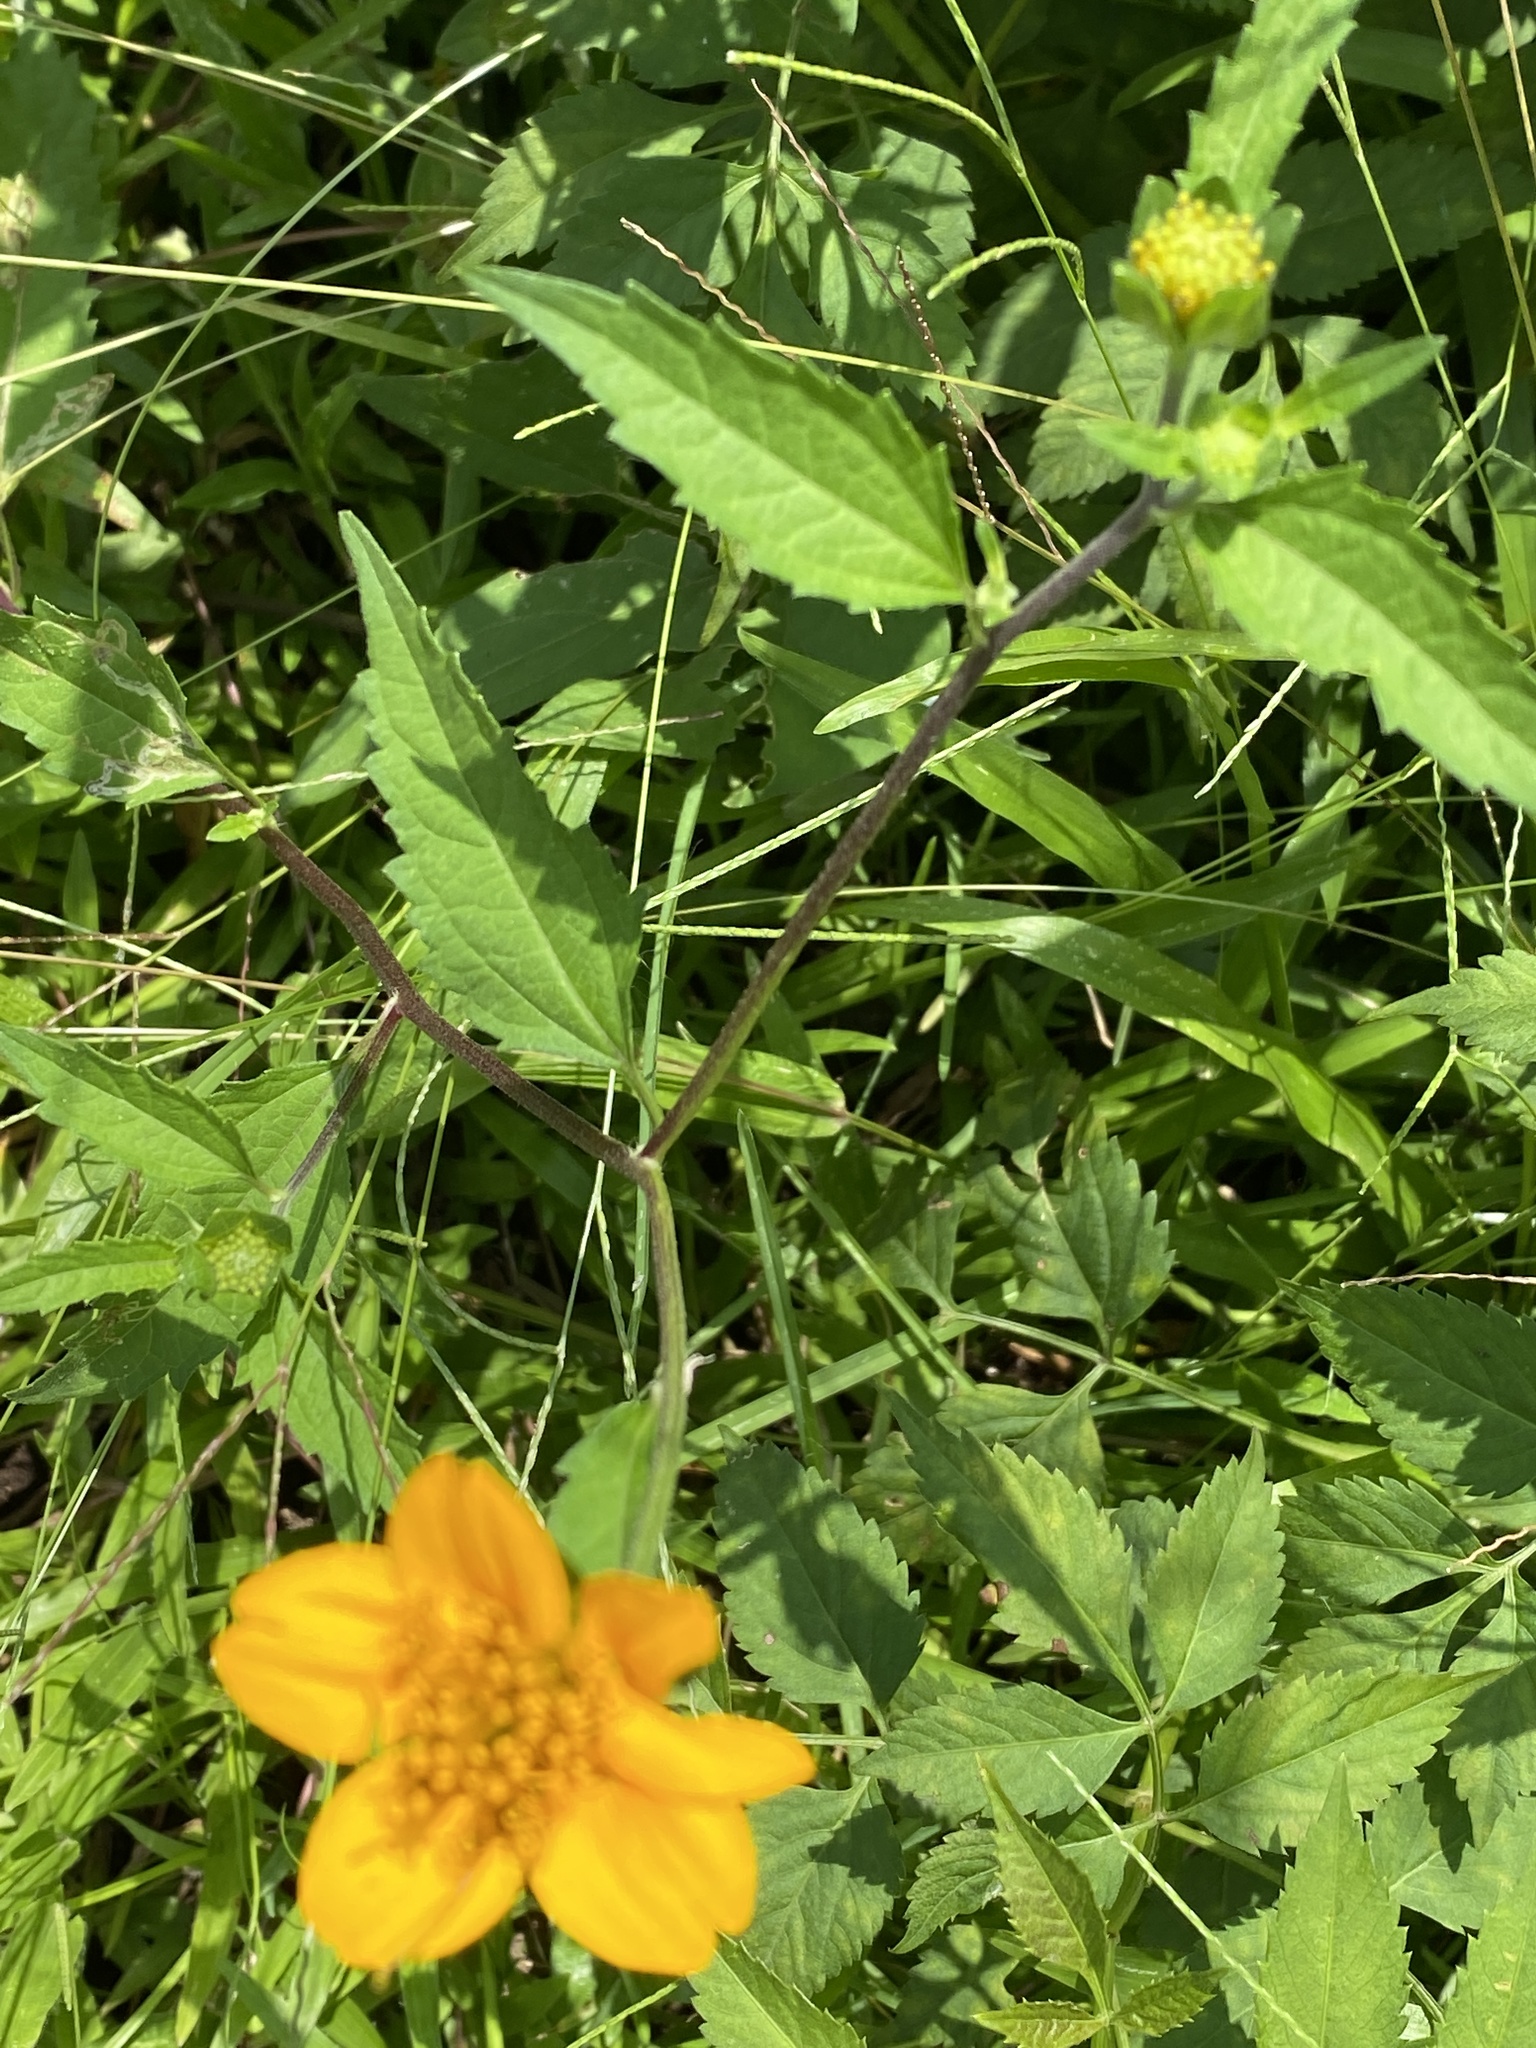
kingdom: Plantae
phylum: Tracheophyta
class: Magnoliopsida
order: Asterales
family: Asteraceae
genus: Sclerocarpus
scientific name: Sclerocarpus divaricatus
